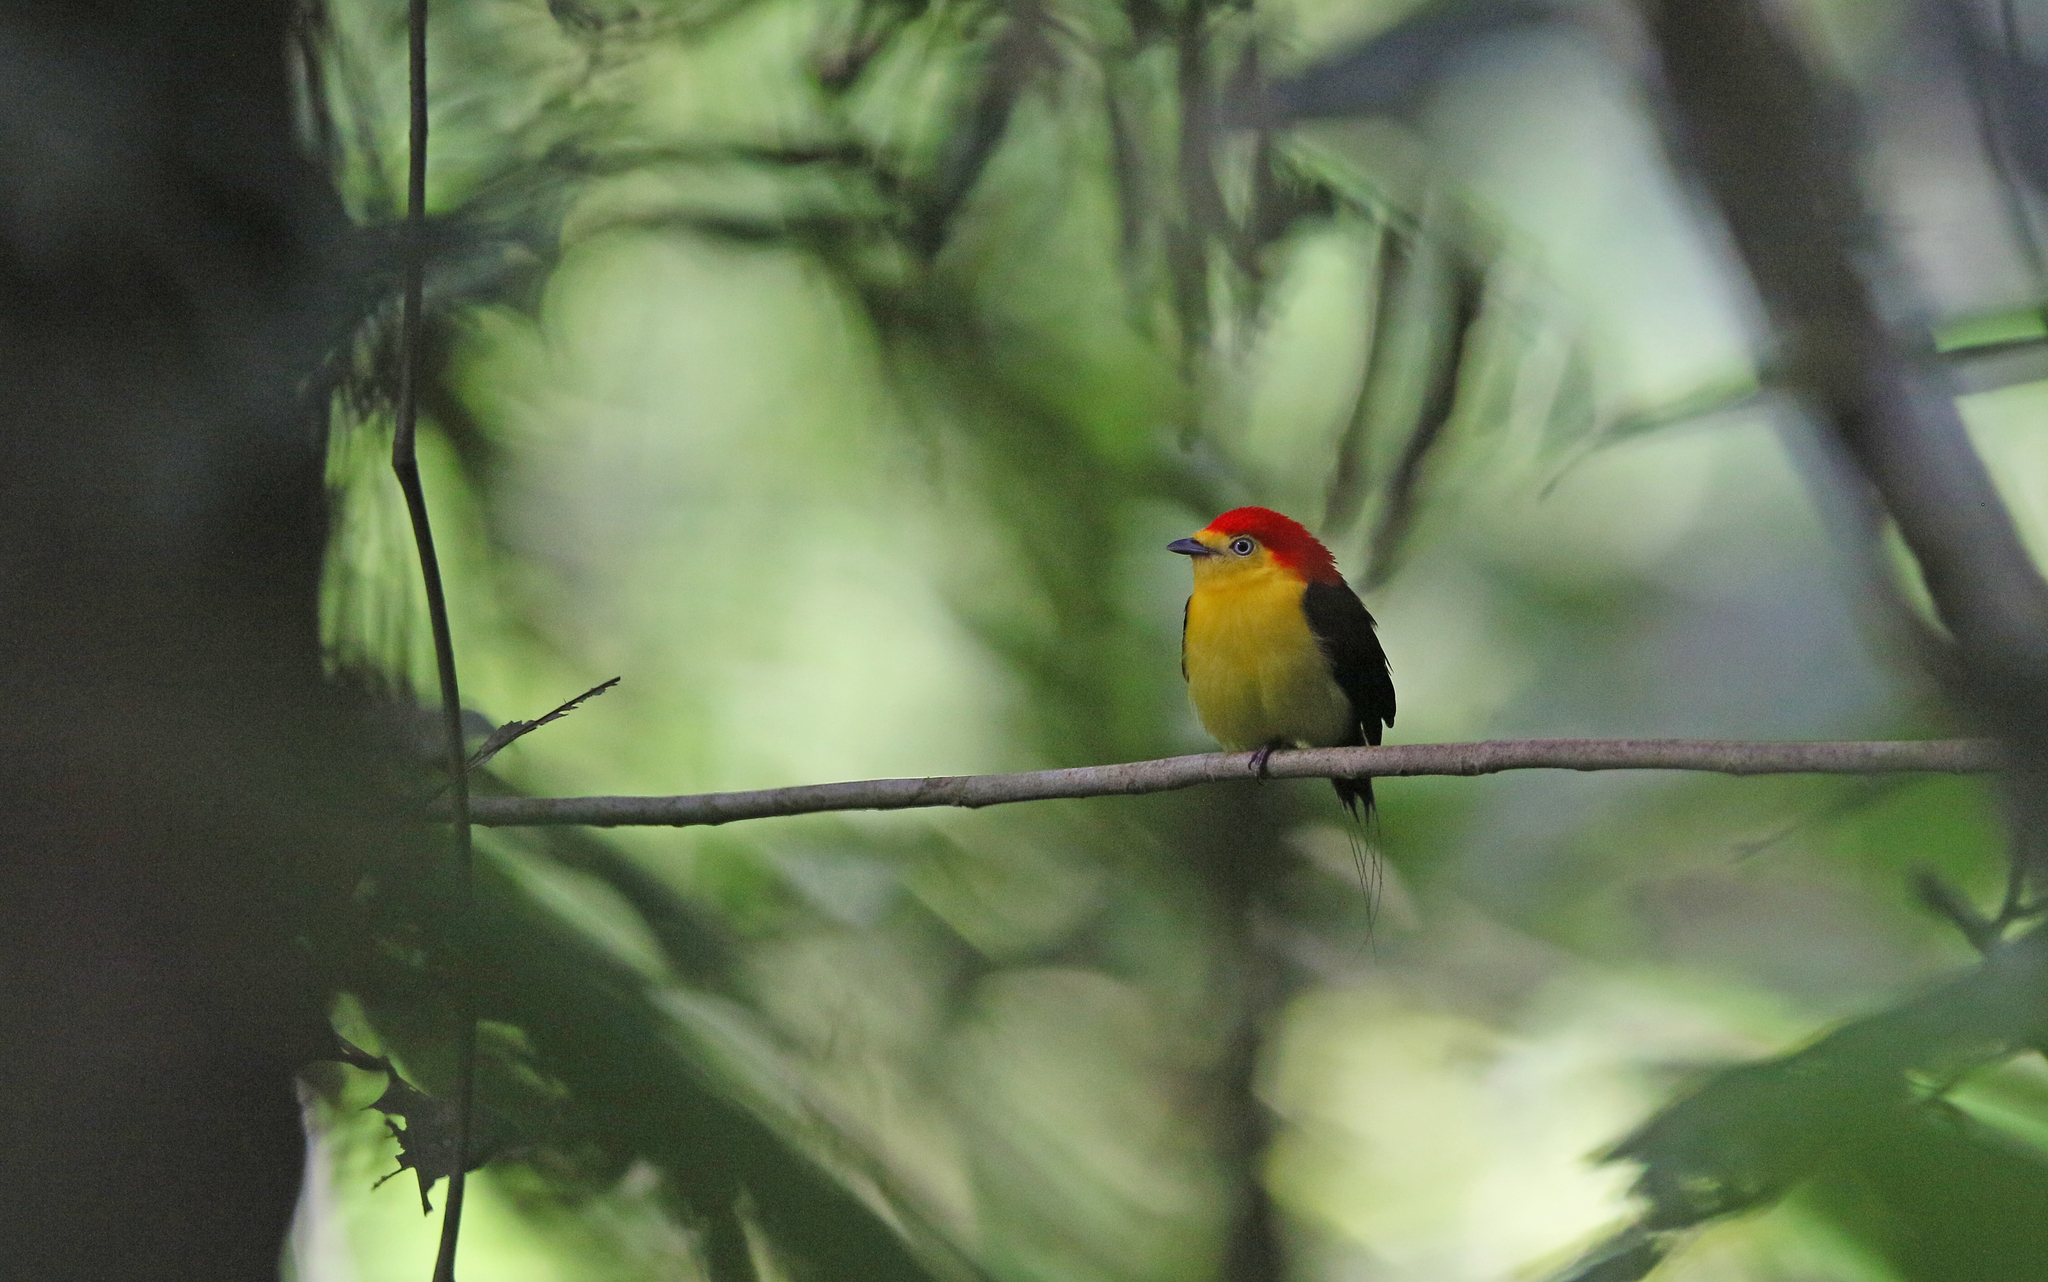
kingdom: Animalia
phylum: Chordata
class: Aves
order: Passeriformes
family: Pipridae
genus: Pipra
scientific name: Pipra filicauda
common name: Wire-tailed manakin
